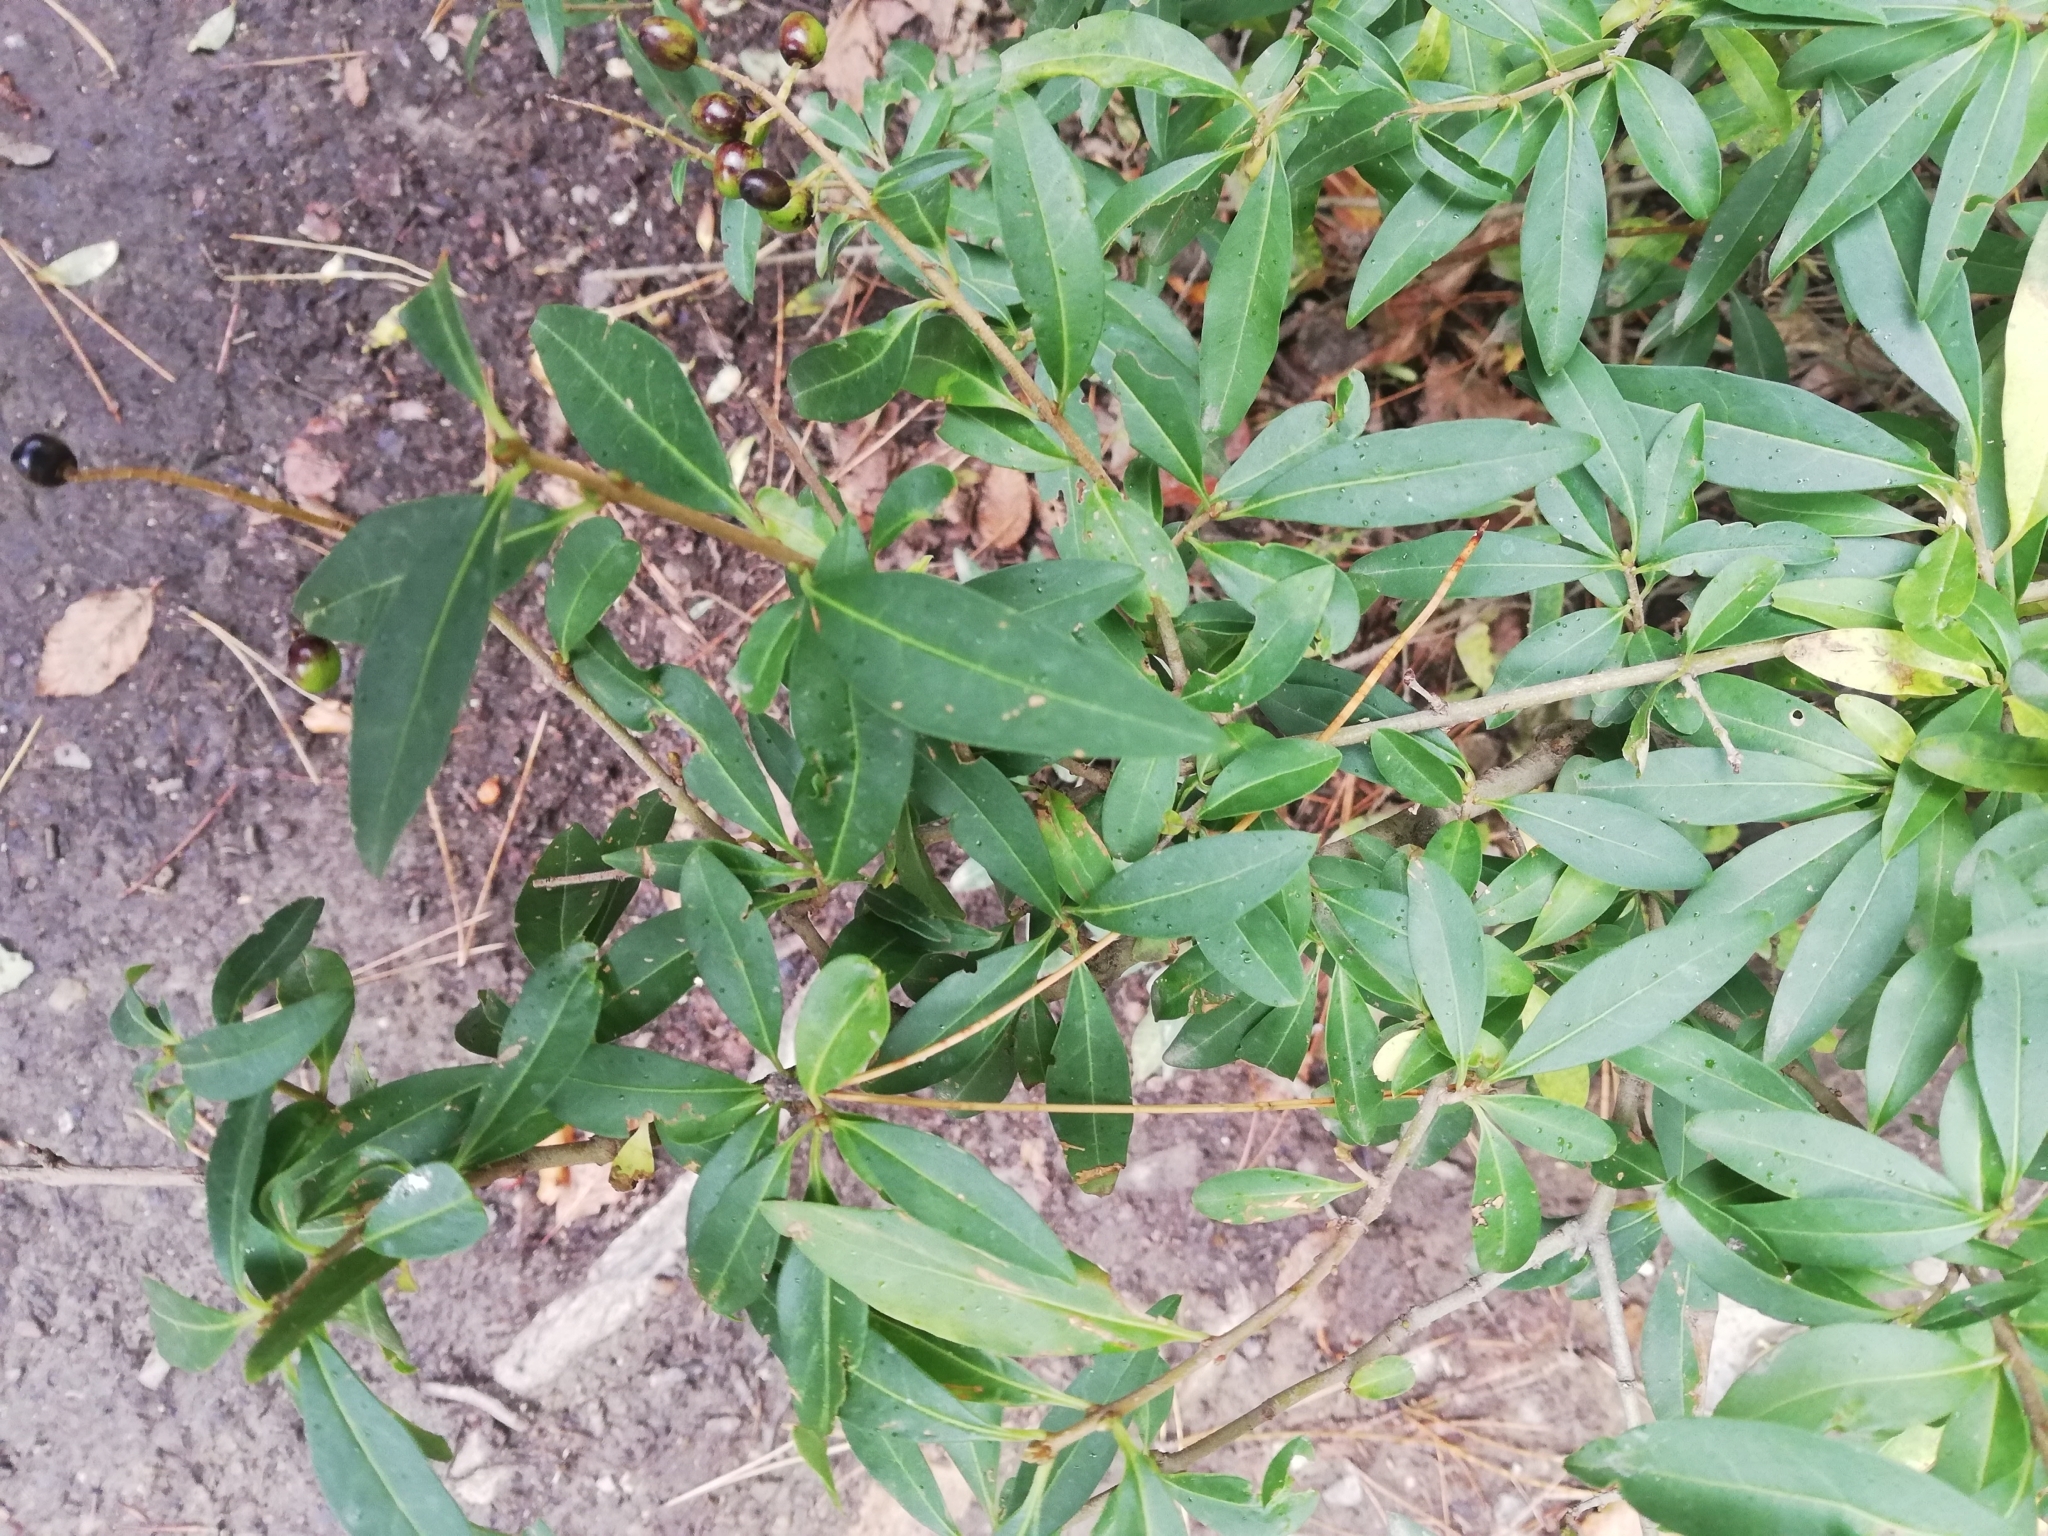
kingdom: Plantae
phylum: Tracheophyta
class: Magnoliopsida
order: Lamiales
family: Oleaceae
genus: Ligustrum
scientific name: Ligustrum vulgare
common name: Wild privet
